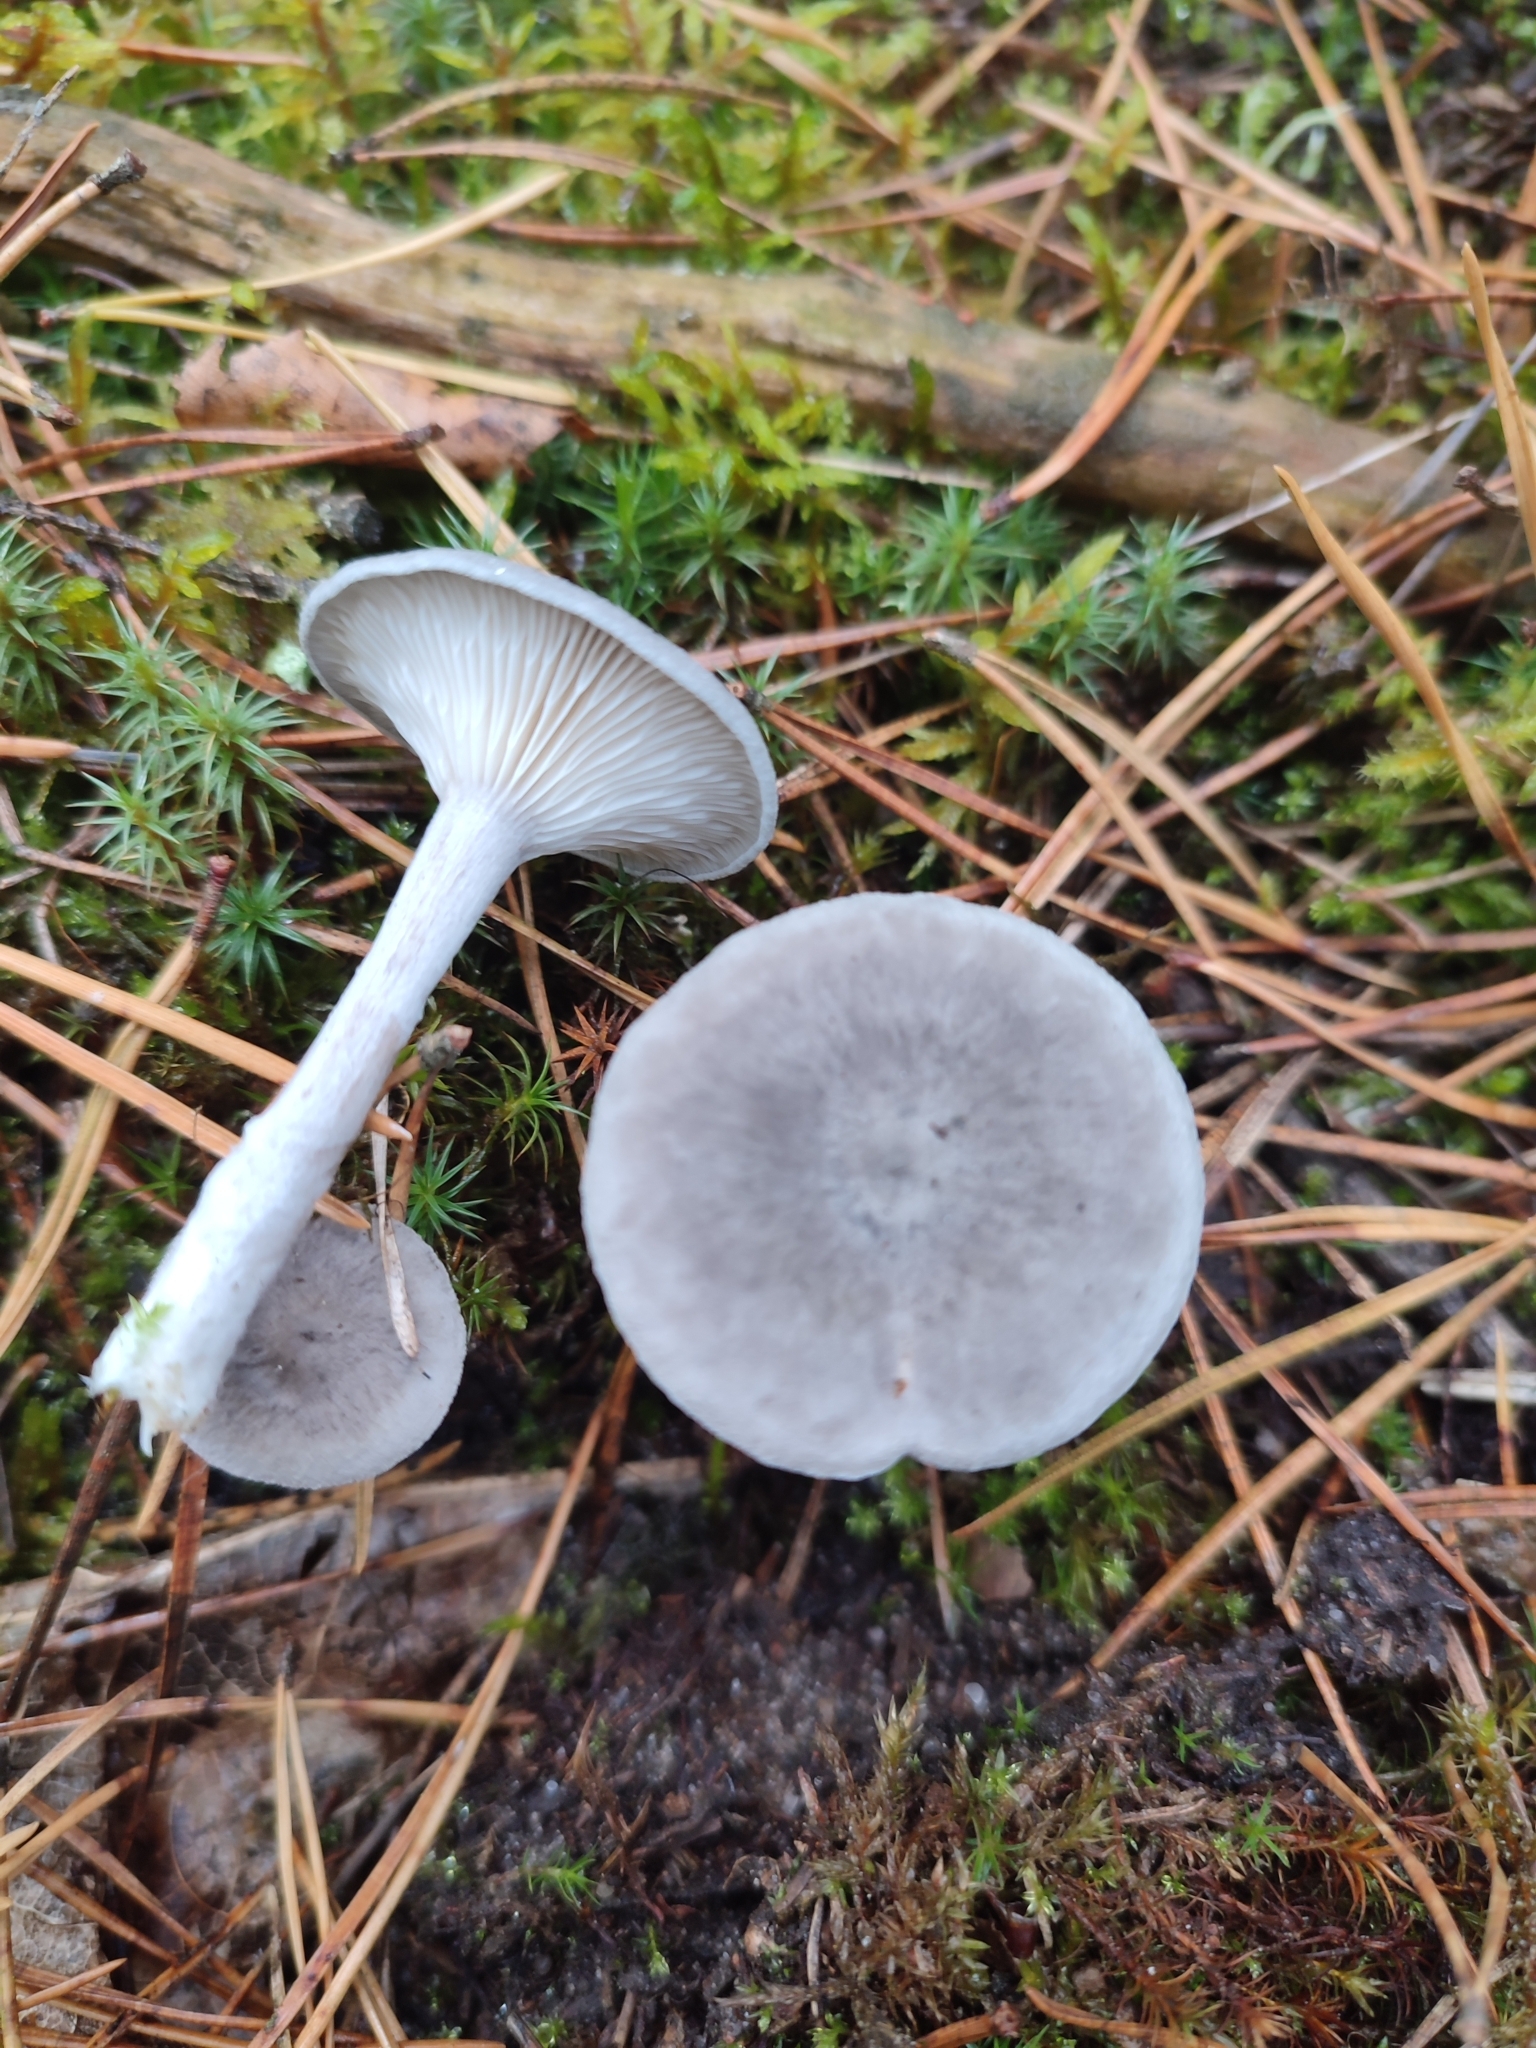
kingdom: Fungi
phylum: Basidiomycota
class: Agaricomycetes
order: Agaricales
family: Hygrophoraceae
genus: Cantharellula
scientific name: Cantharellula umbonata
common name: The humpback
